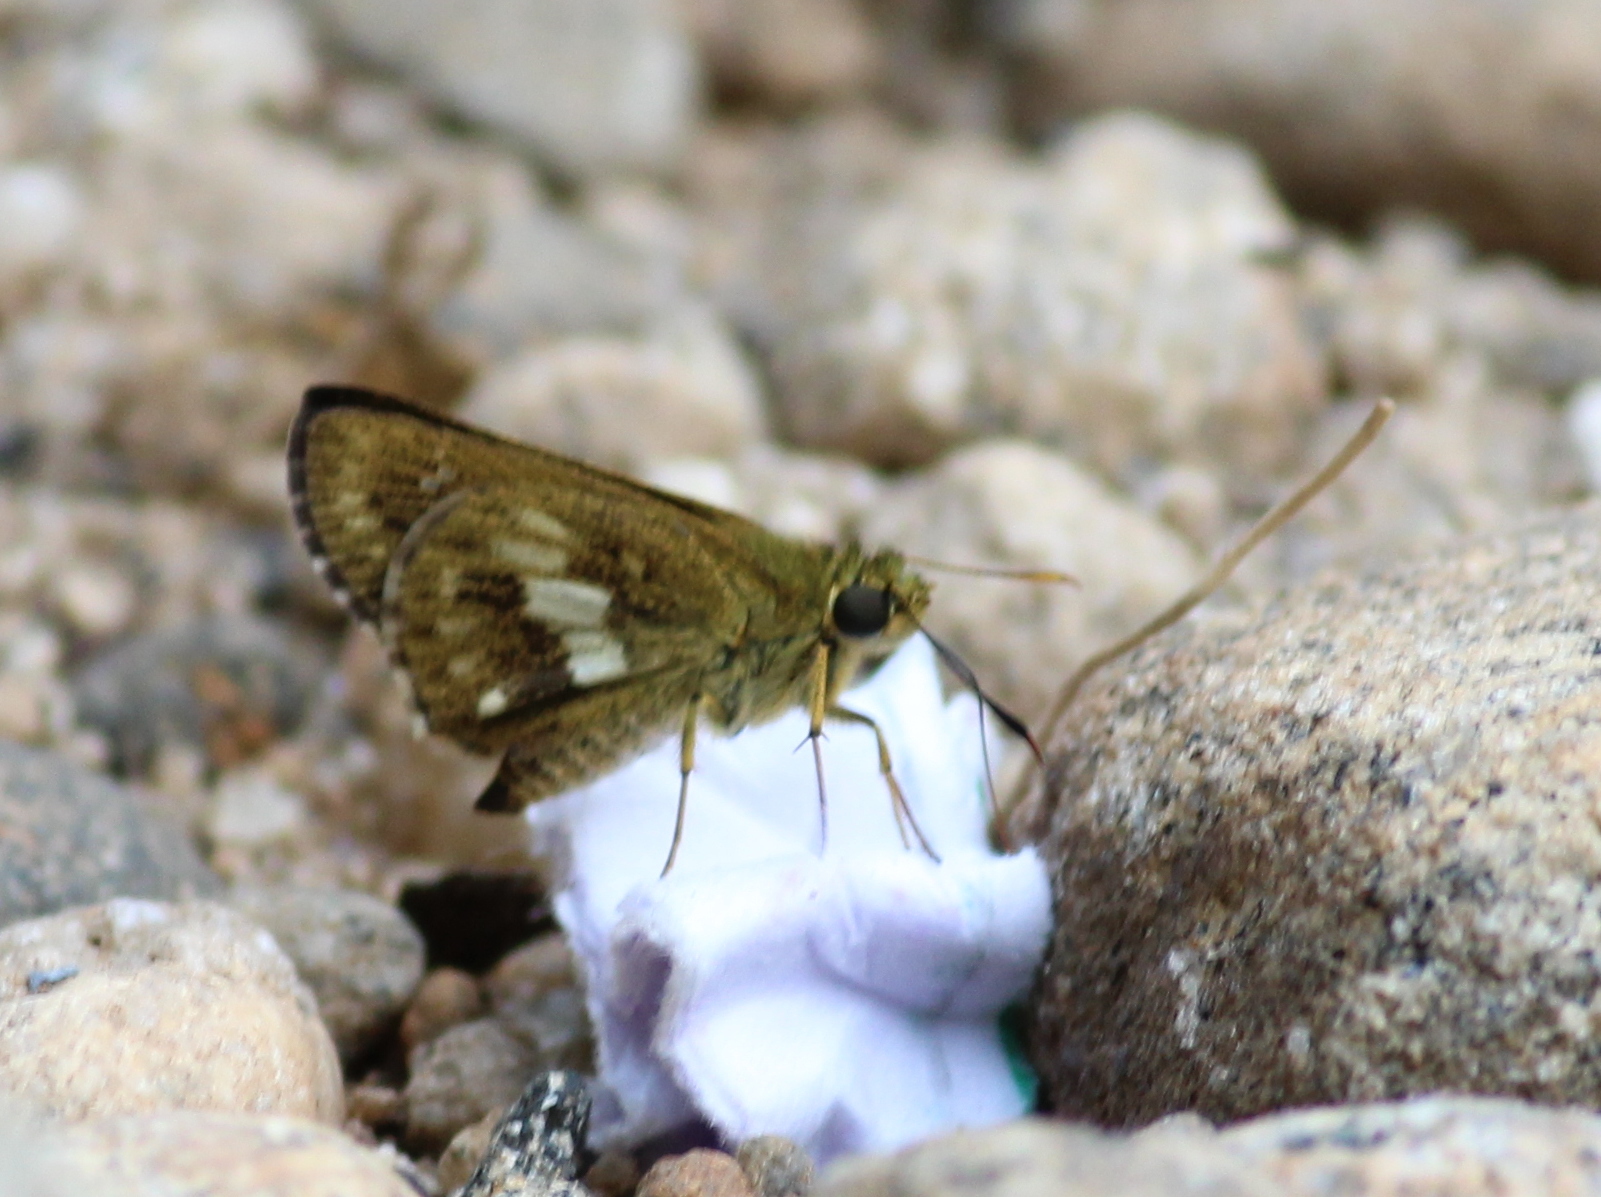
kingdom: Animalia
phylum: Arthropoda
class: Insecta
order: Lepidoptera
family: Hesperiidae
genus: Halpe
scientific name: Halpe homolea
